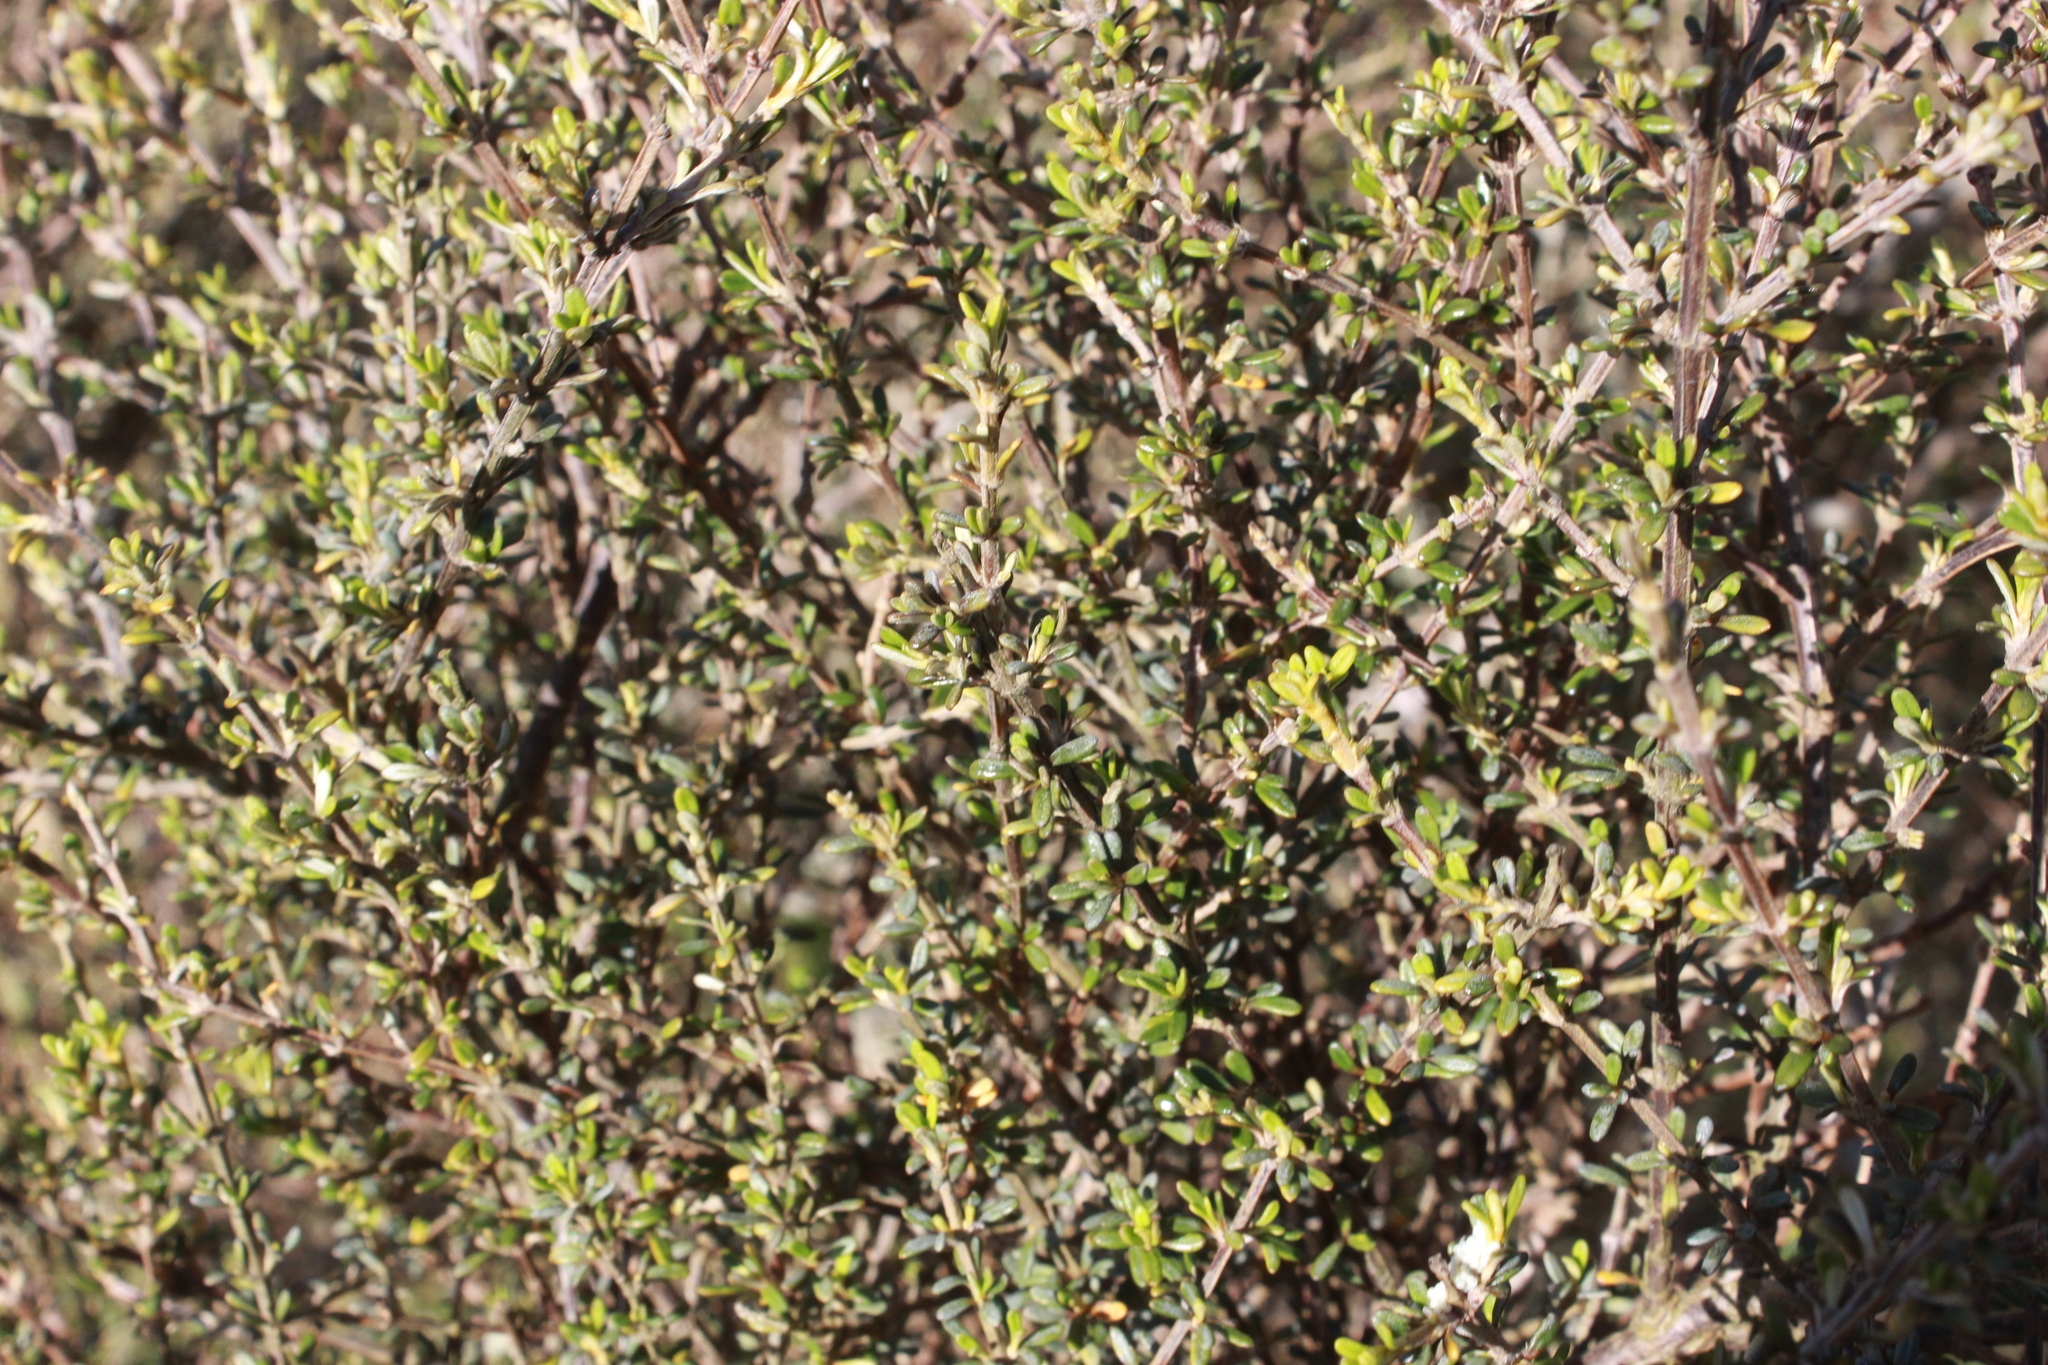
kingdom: Plantae
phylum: Tracheophyta
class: Magnoliopsida
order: Asterales
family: Asteraceae
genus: Olearia
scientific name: Olearia solandri
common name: Coastal daisybush
